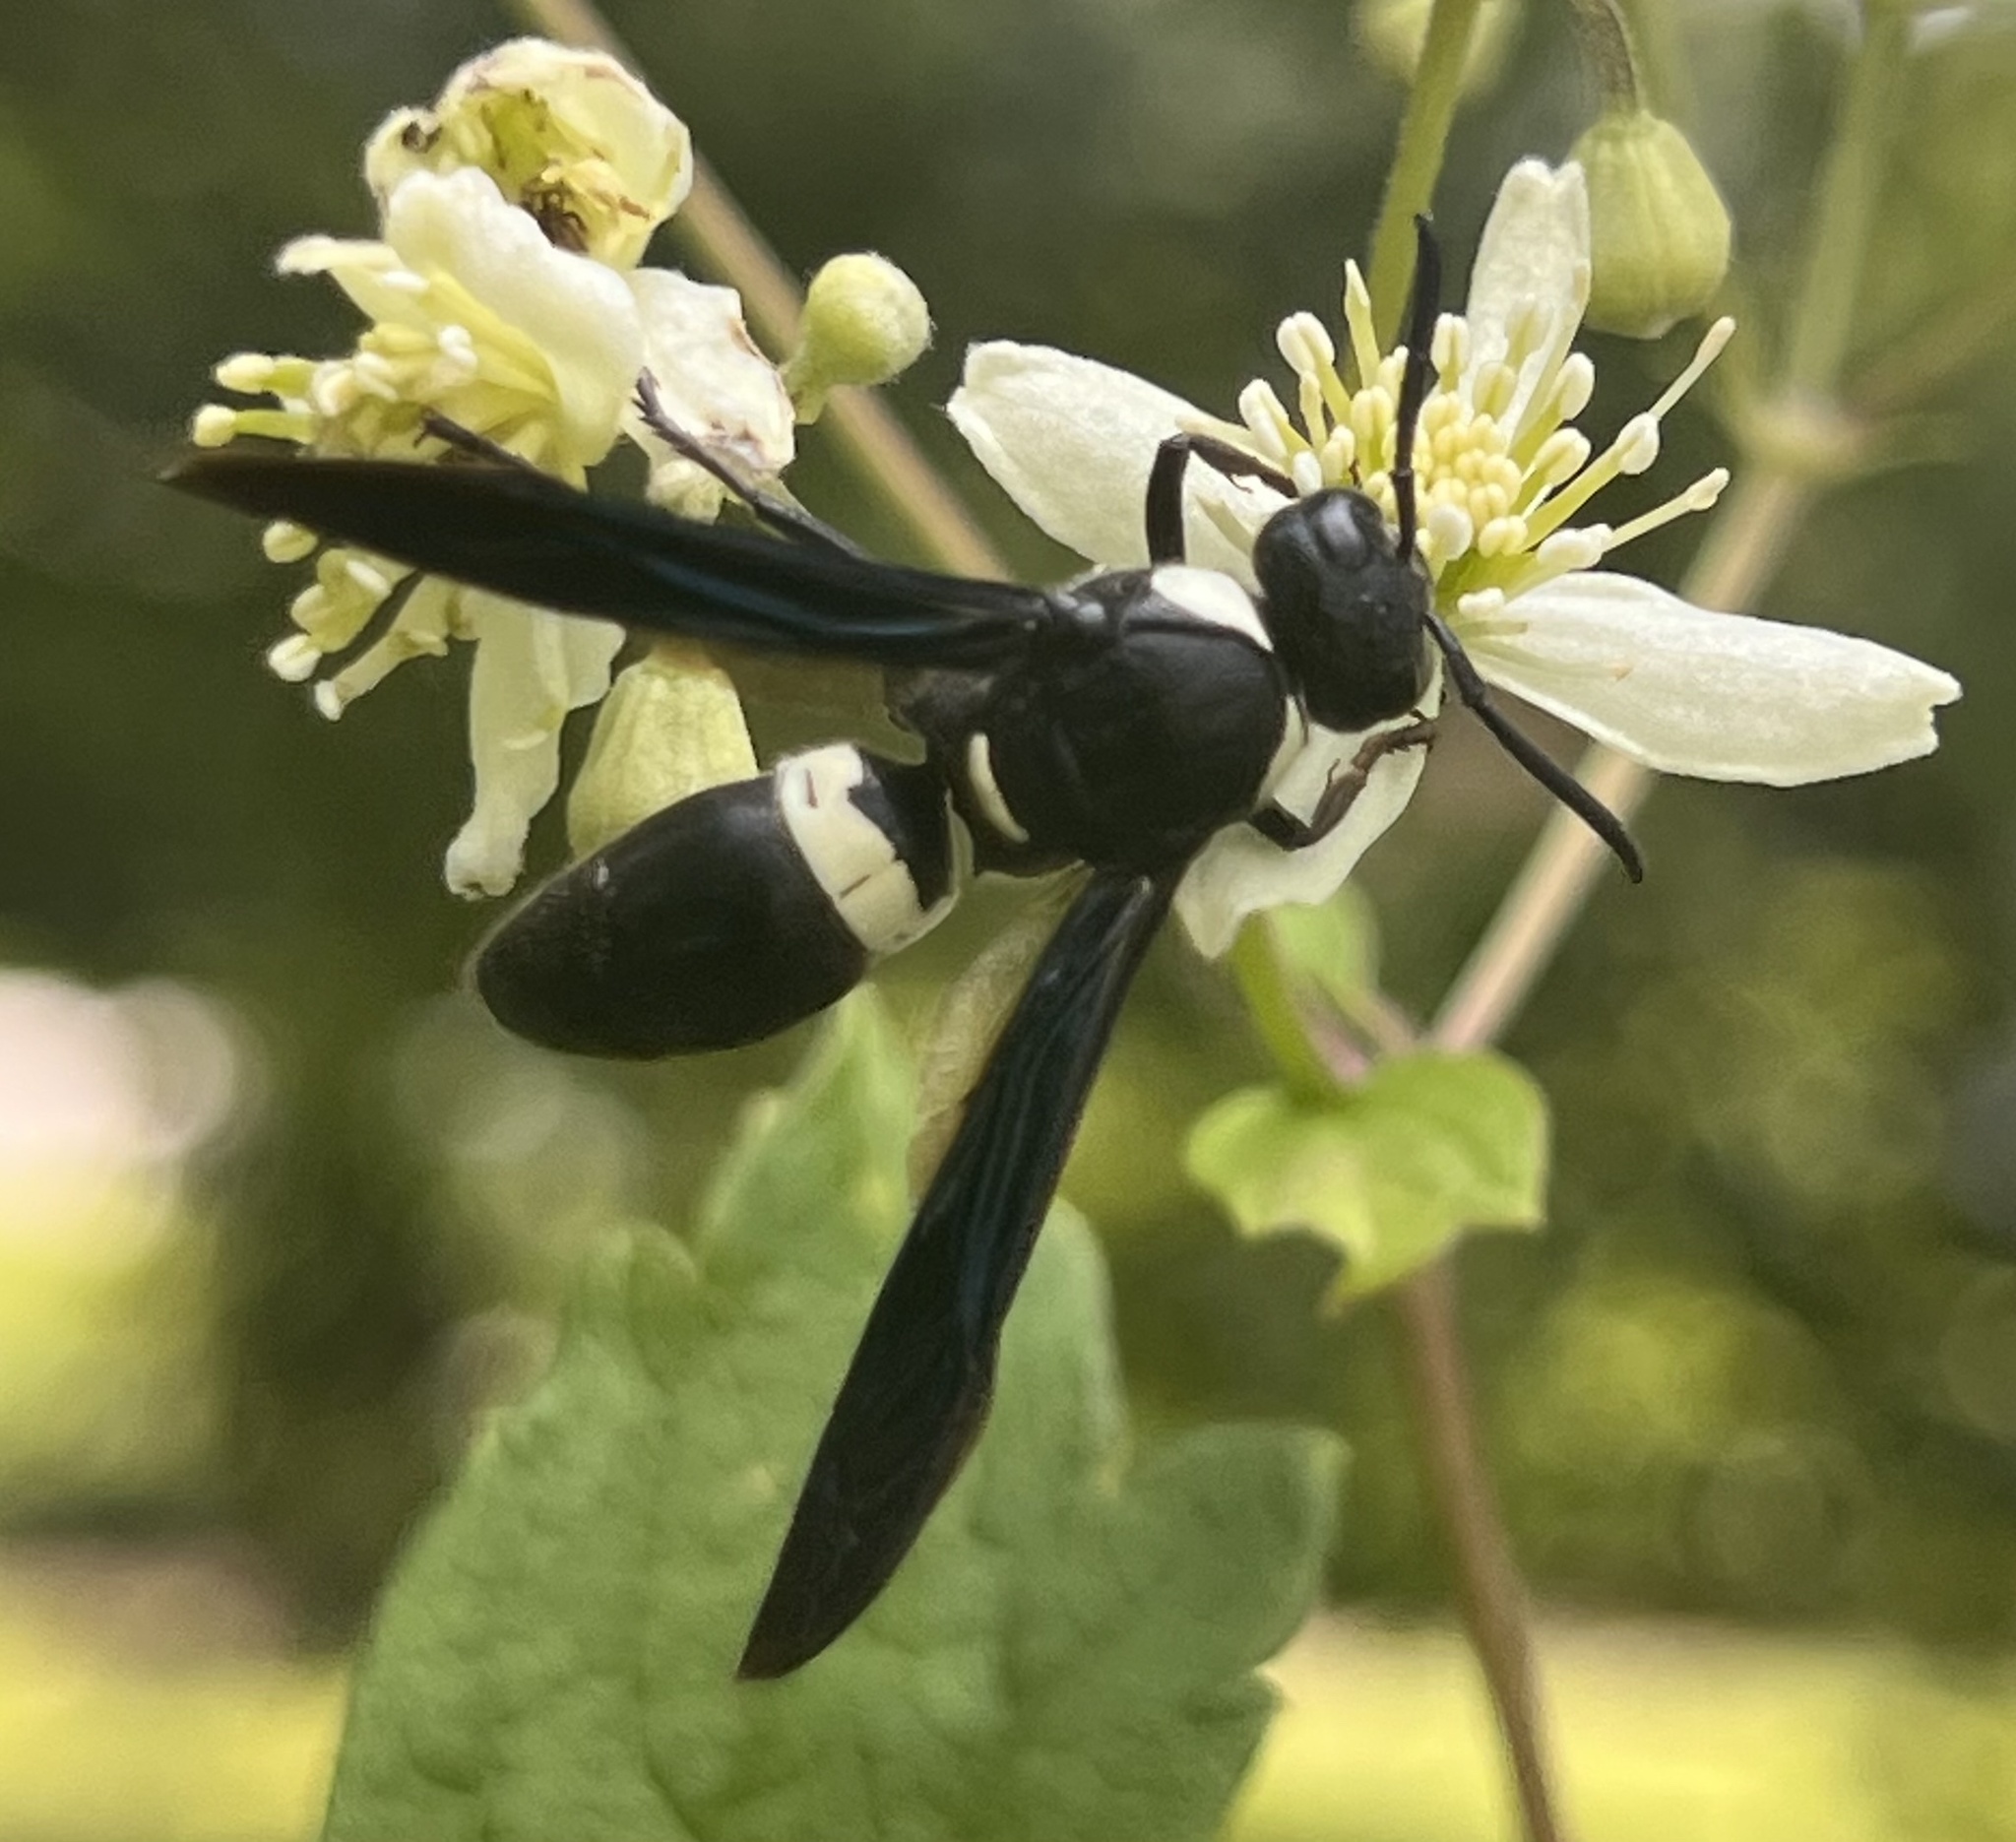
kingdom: Animalia
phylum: Arthropoda
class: Insecta
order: Hymenoptera
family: Eumenidae
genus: Monobia
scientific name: Monobia quadridens
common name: Four-toothed mason wasp
